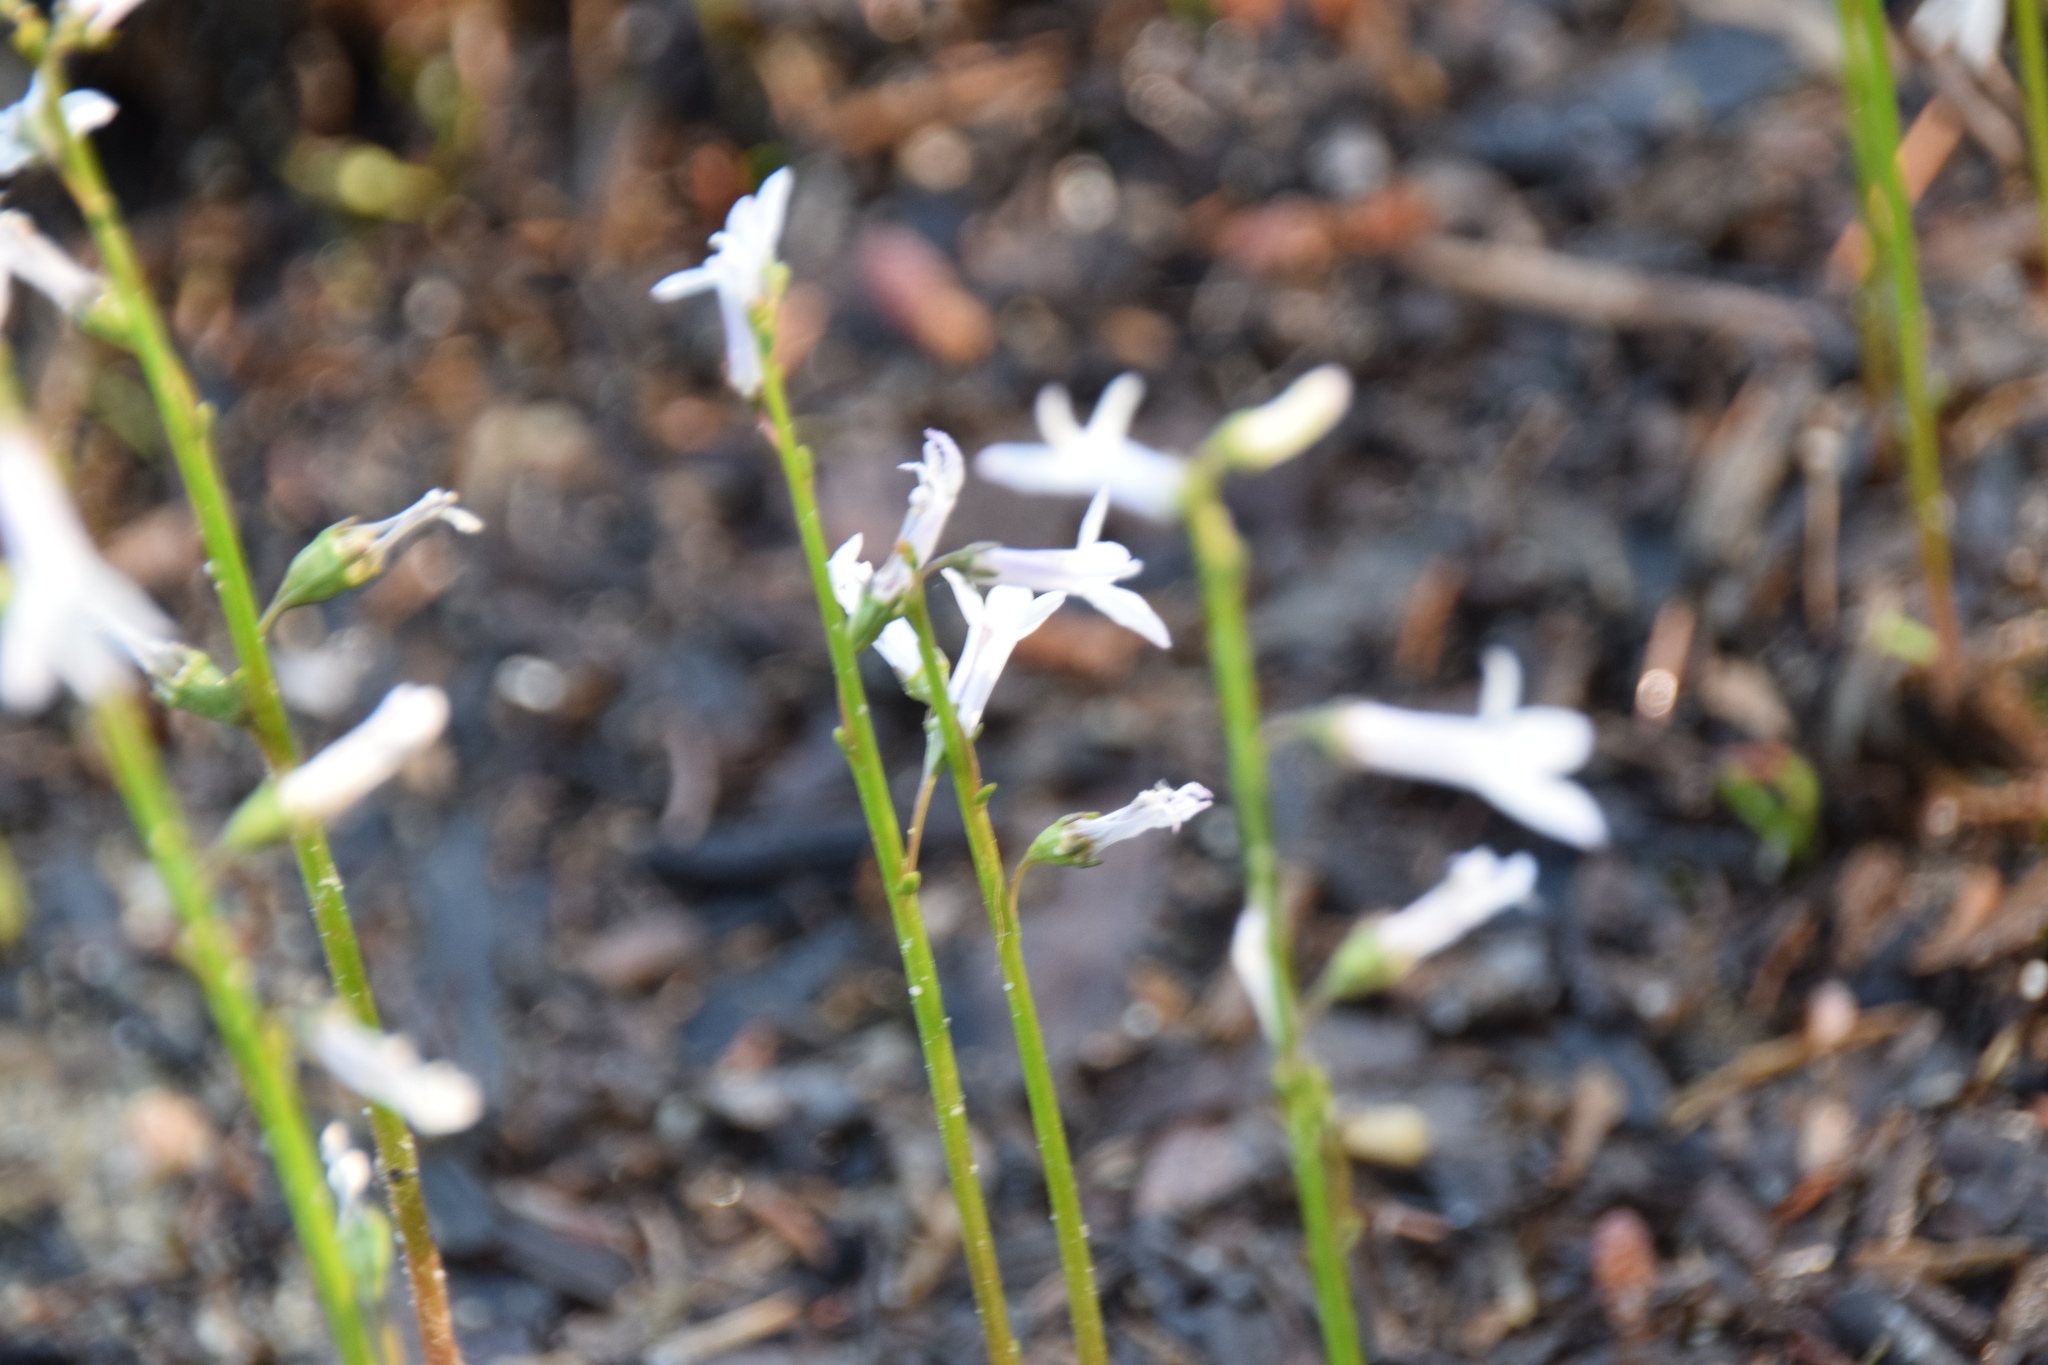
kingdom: Plantae
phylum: Tracheophyta
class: Magnoliopsida
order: Asterales
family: Campanulaceae
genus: Lobelia
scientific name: Lobelia dortmanna
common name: Water lobelia
